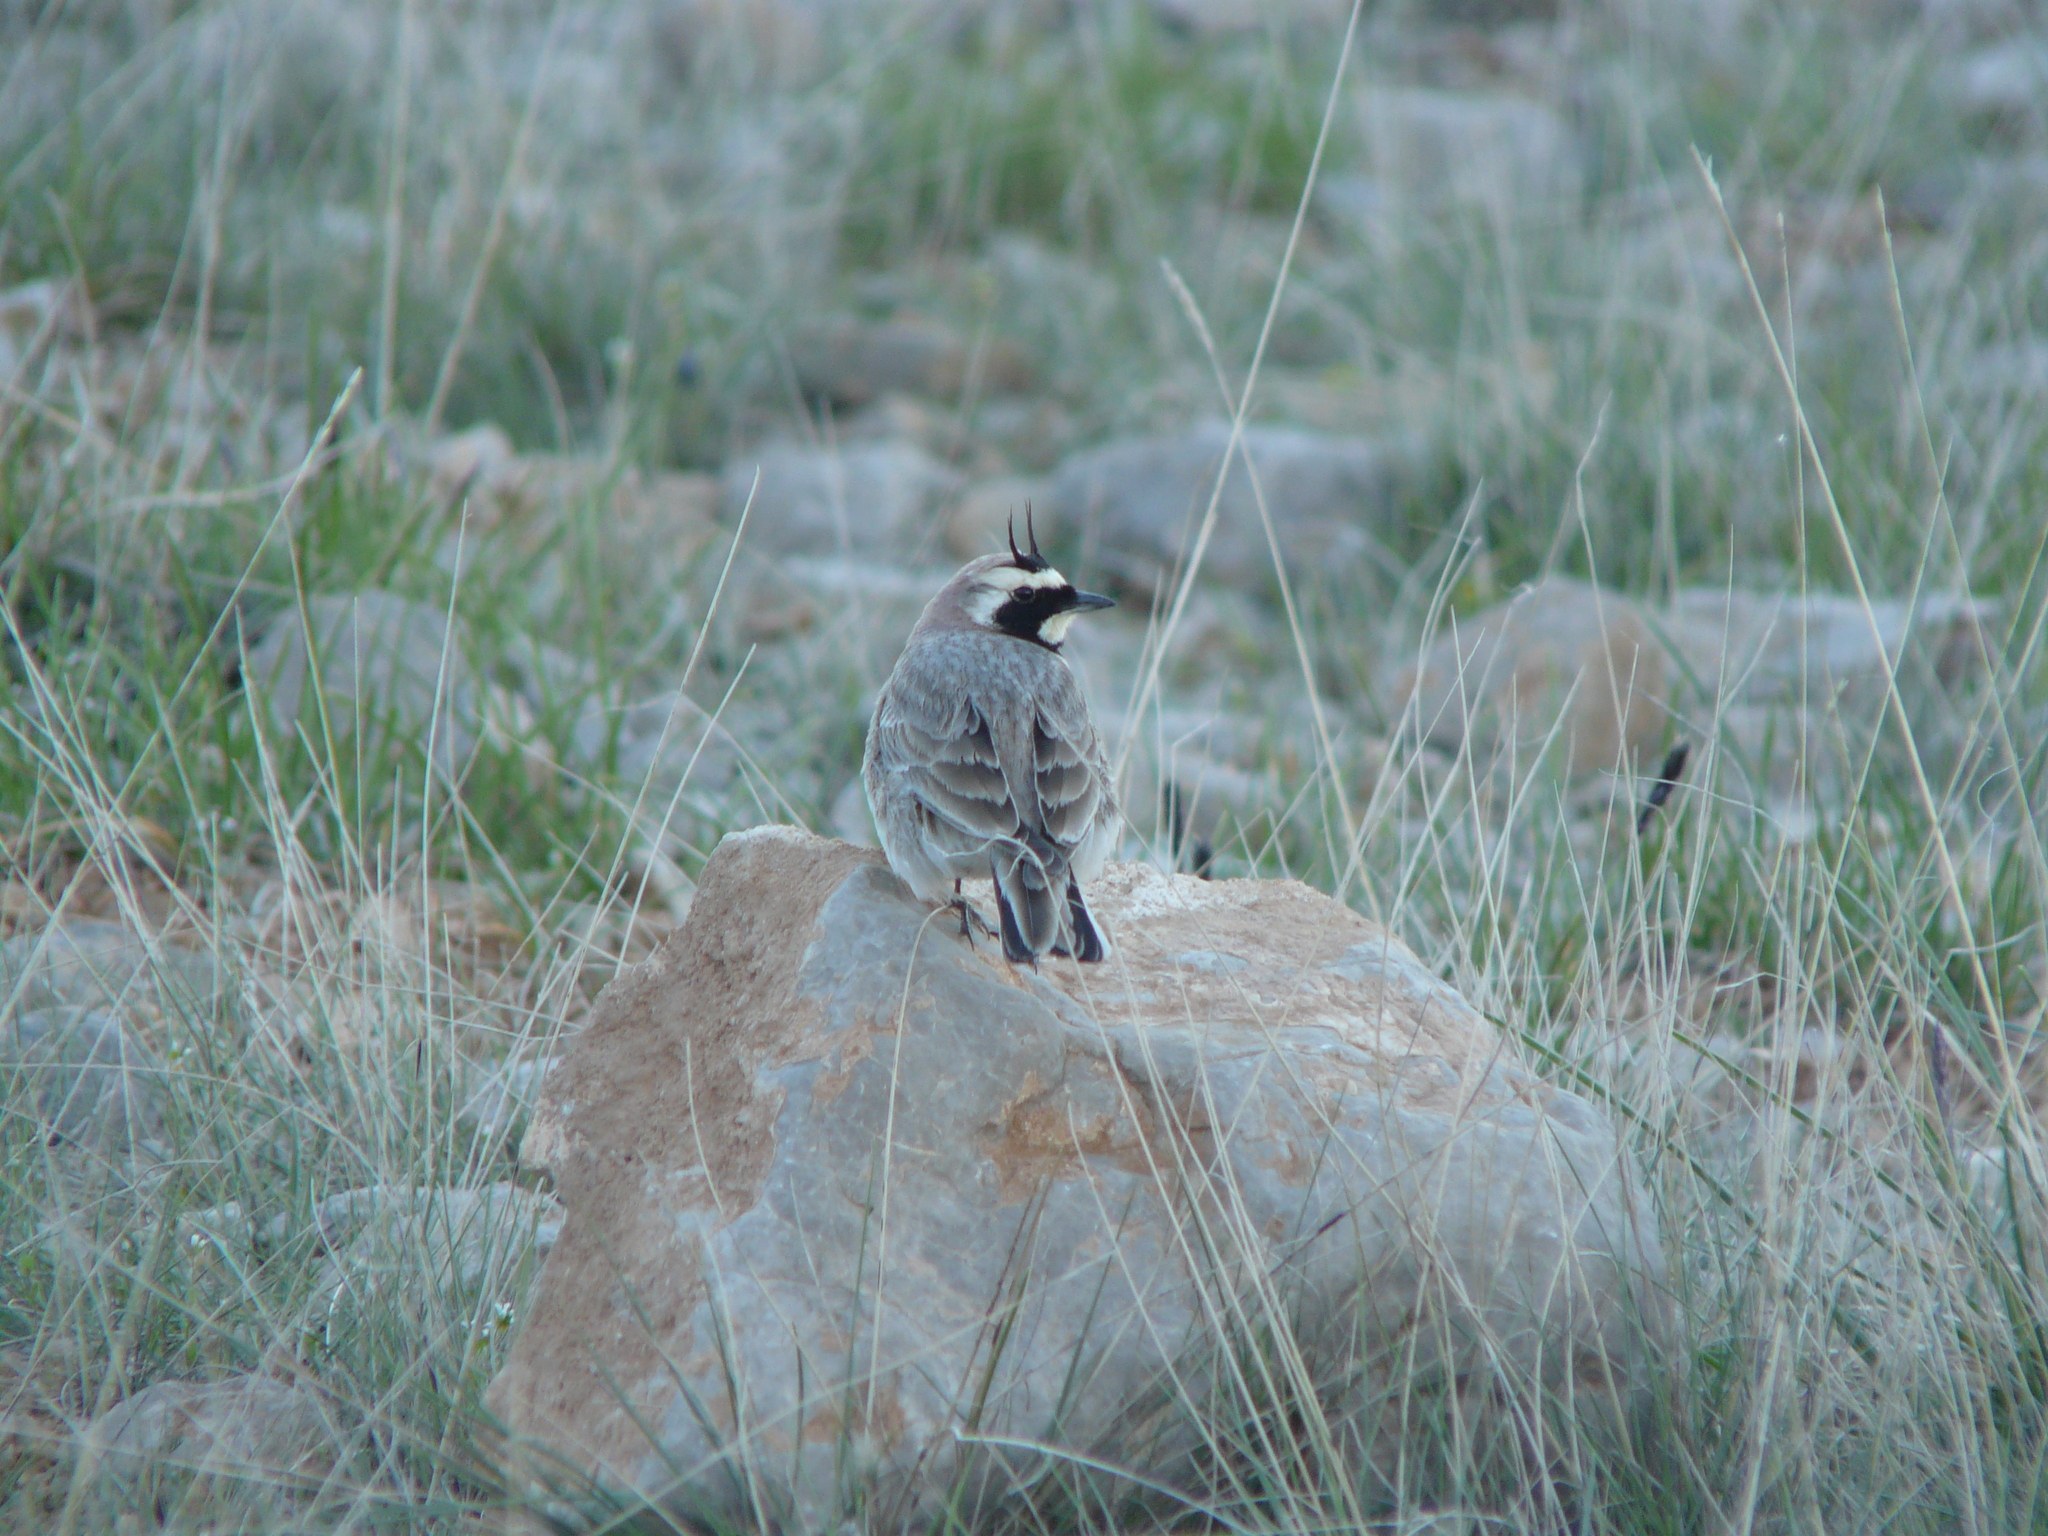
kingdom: Animalia
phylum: Chordata
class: Aves
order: Passeriformes
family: Alaudidae
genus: Eremophila
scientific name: Eremophila alpestris
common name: Horned lark
